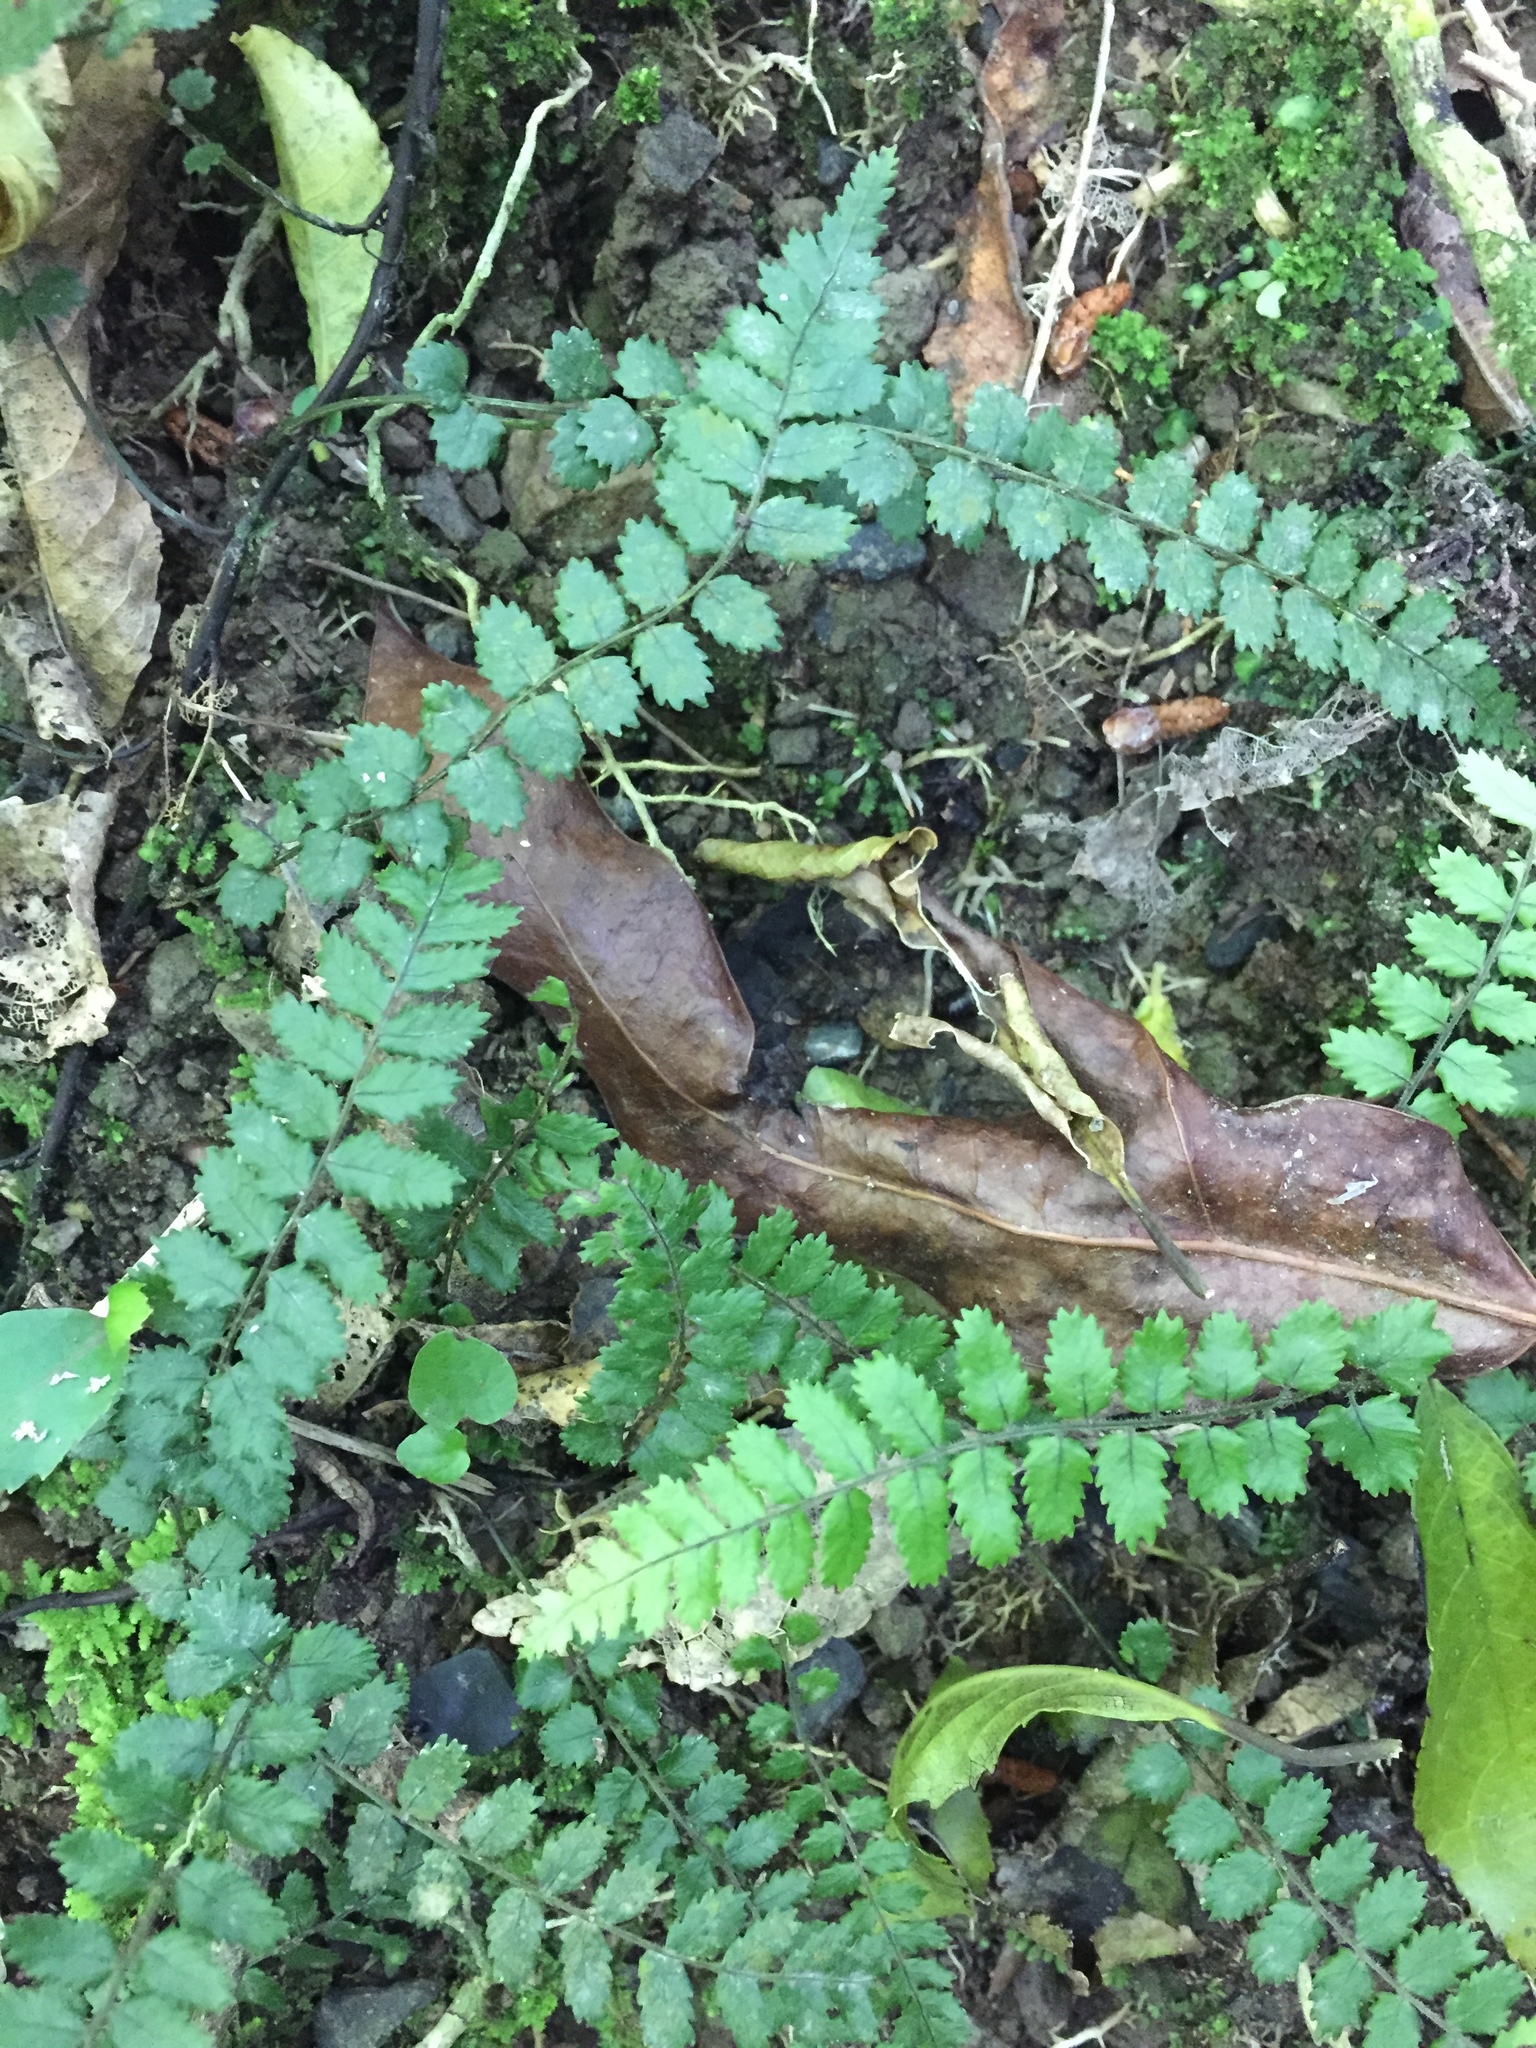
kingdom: Plantae
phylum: Tracheophyta
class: Polypodiopsida
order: Polypodiales
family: Blechnaceae
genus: Icarus
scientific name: Icarus filiformis
